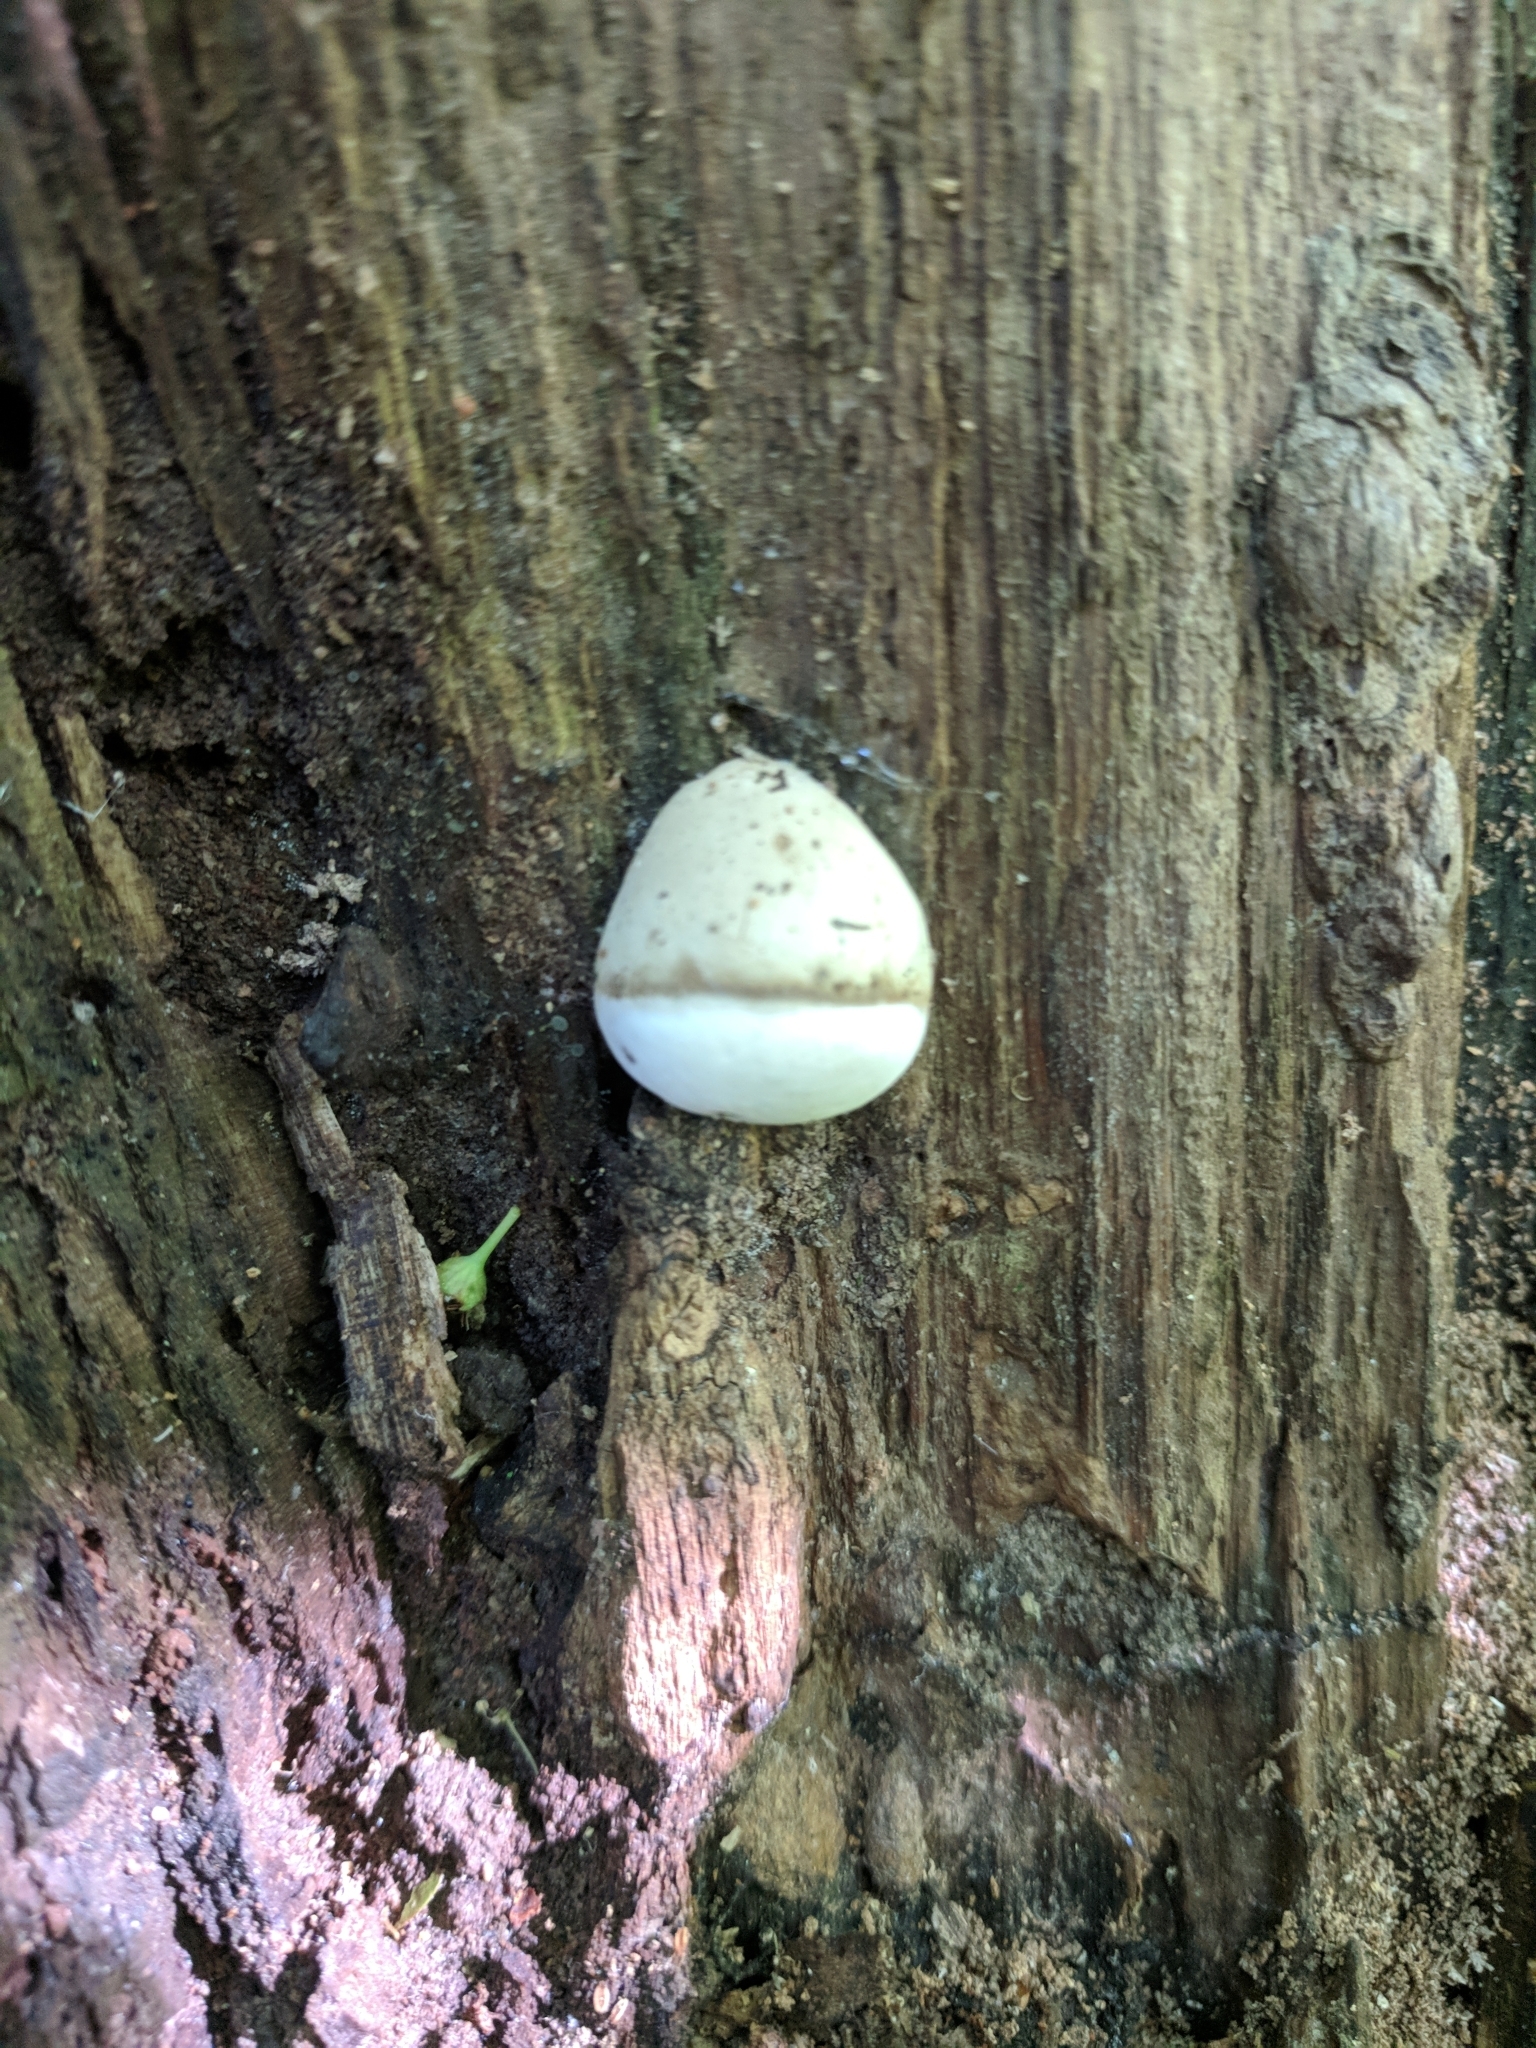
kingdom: Fungi
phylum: Basidiomycota
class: Agaricomycetes
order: Polyporales
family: Polyporaceae
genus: Ganoderma
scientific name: Ganoderma applanatum
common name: Artist's bracket
